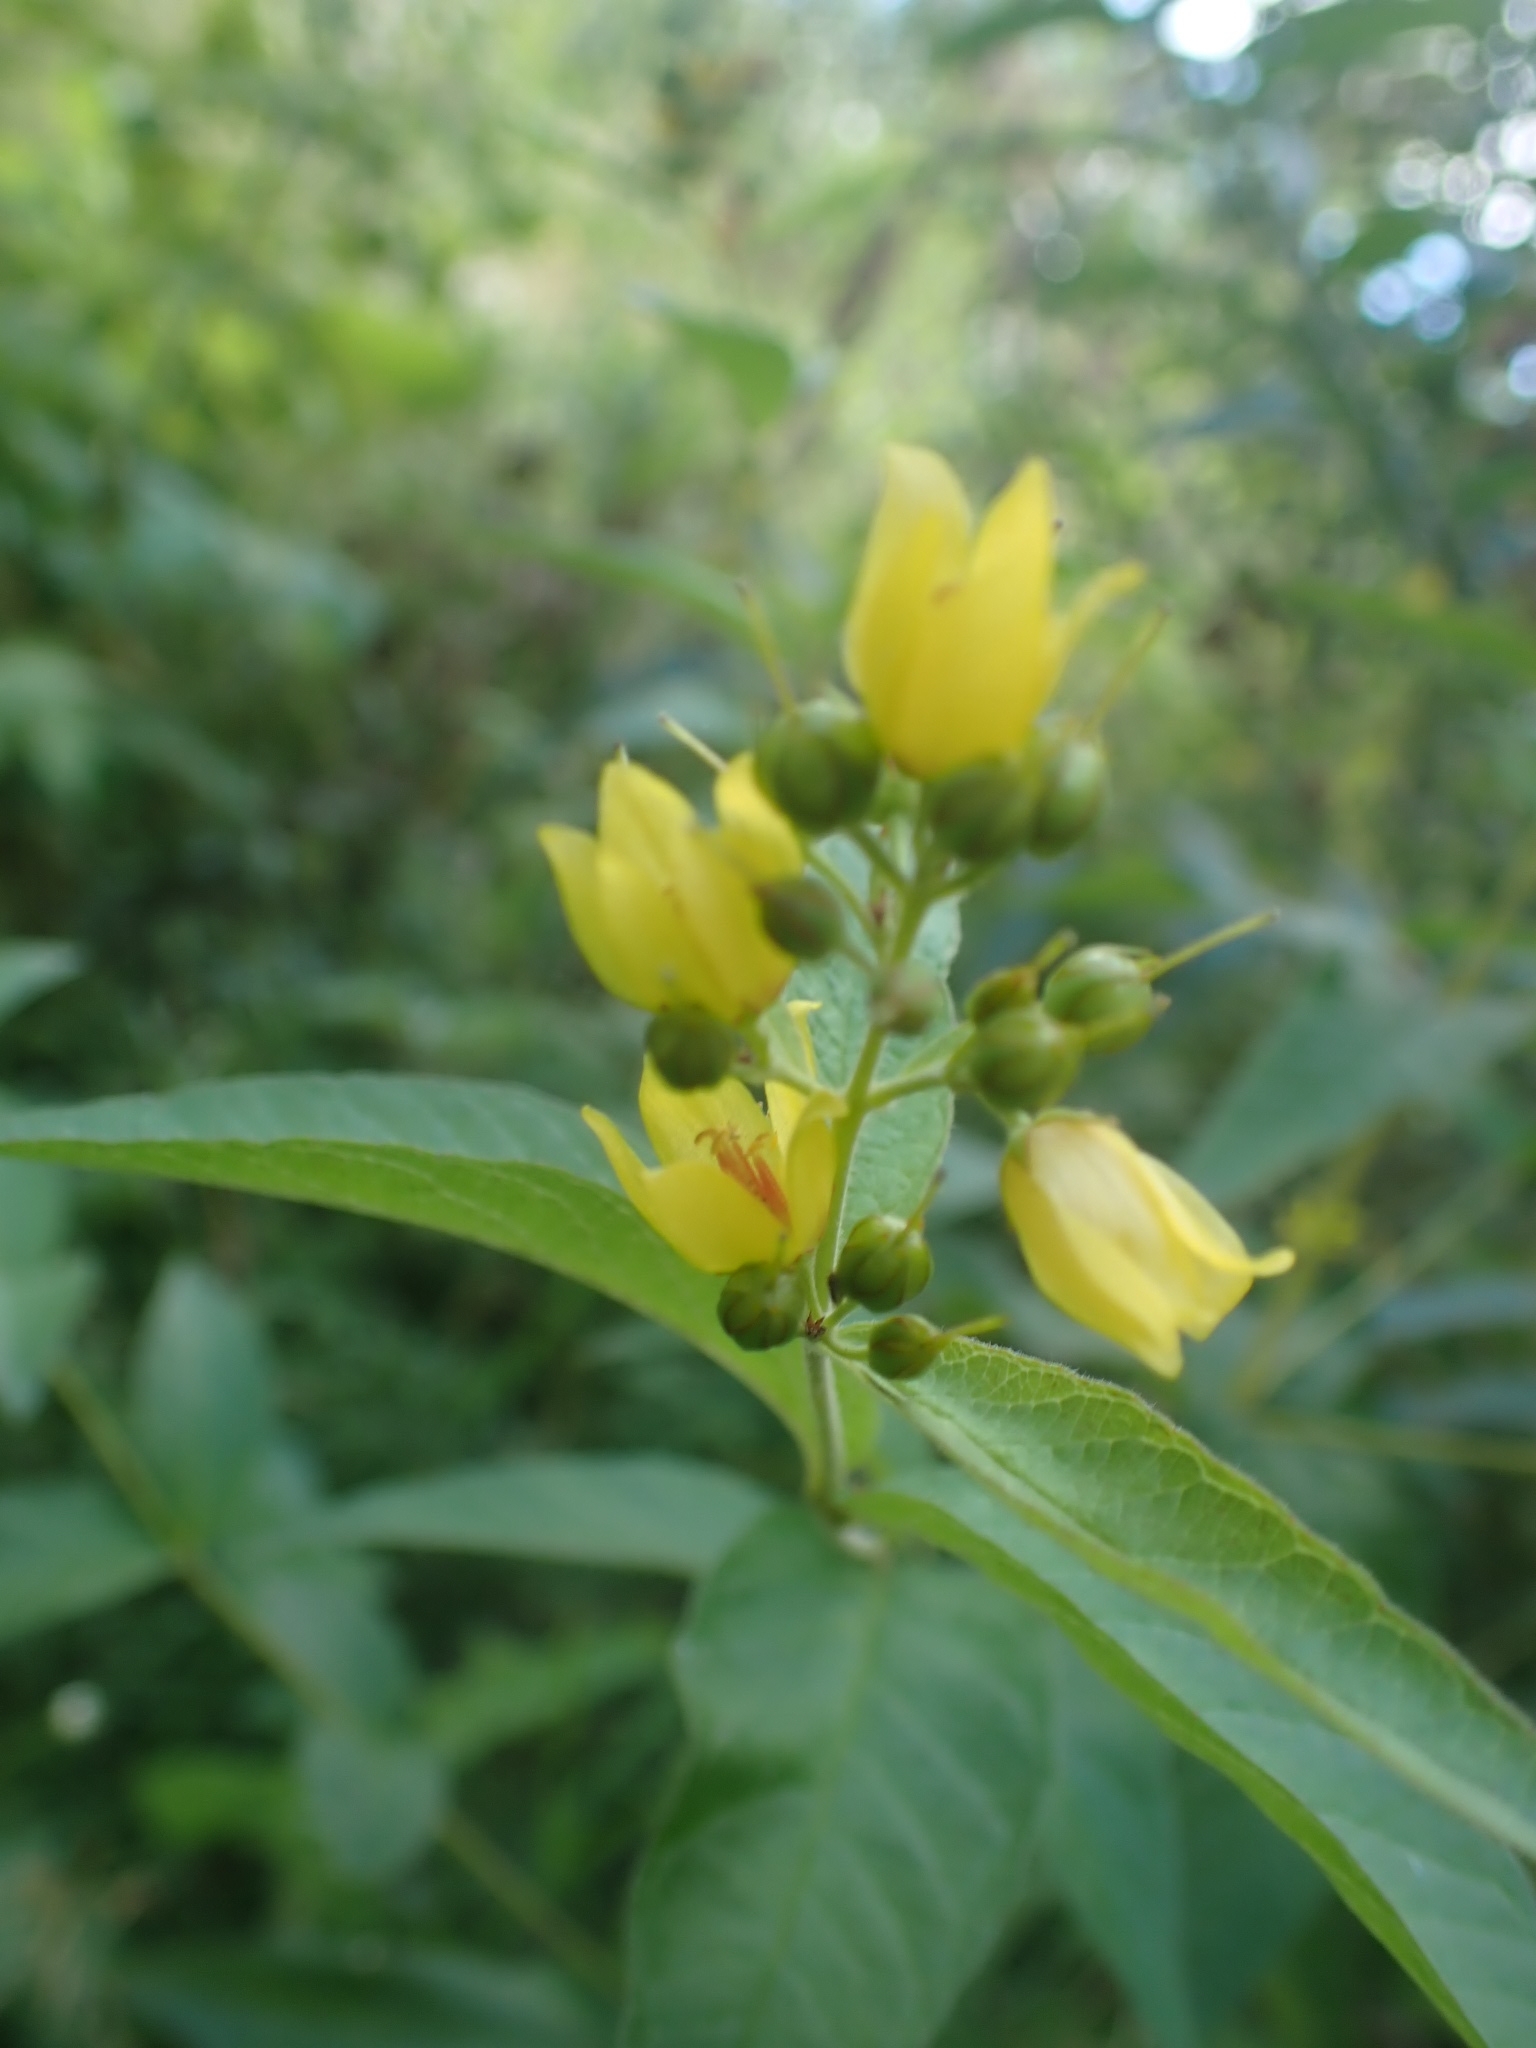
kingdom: Plantae
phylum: Tracheophyta
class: Magnoliopsida
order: Ericales
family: Primulaceae
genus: Lysimachia
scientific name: Lysimachia vulgaris
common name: Yellow loosestrife
